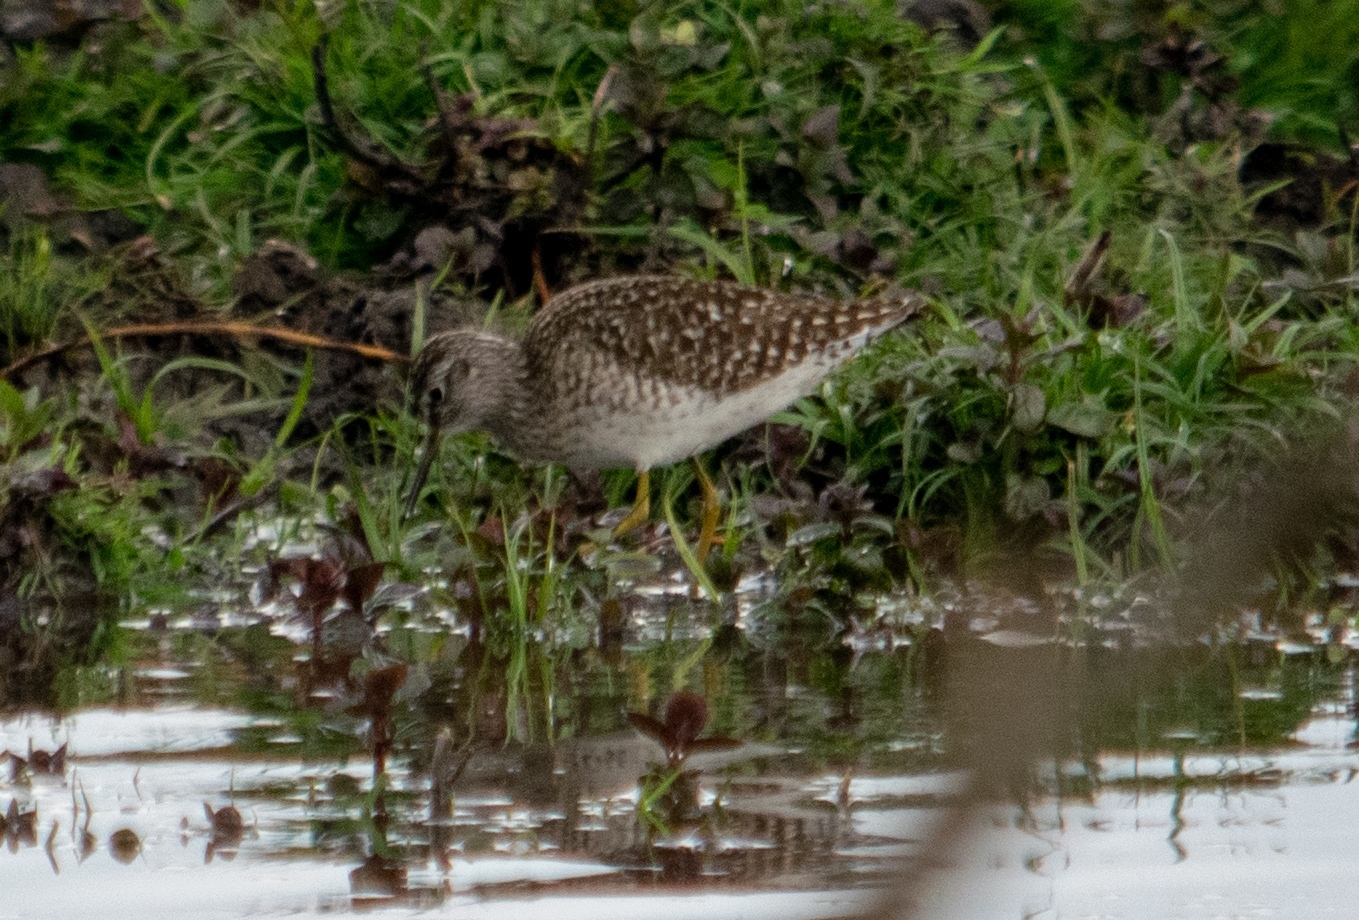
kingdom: Animalia
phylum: Chordata
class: Aves
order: Charadriiformes
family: Scolopacidae
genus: Tringa
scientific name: Tringa glareola
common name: Wood sandpiper
